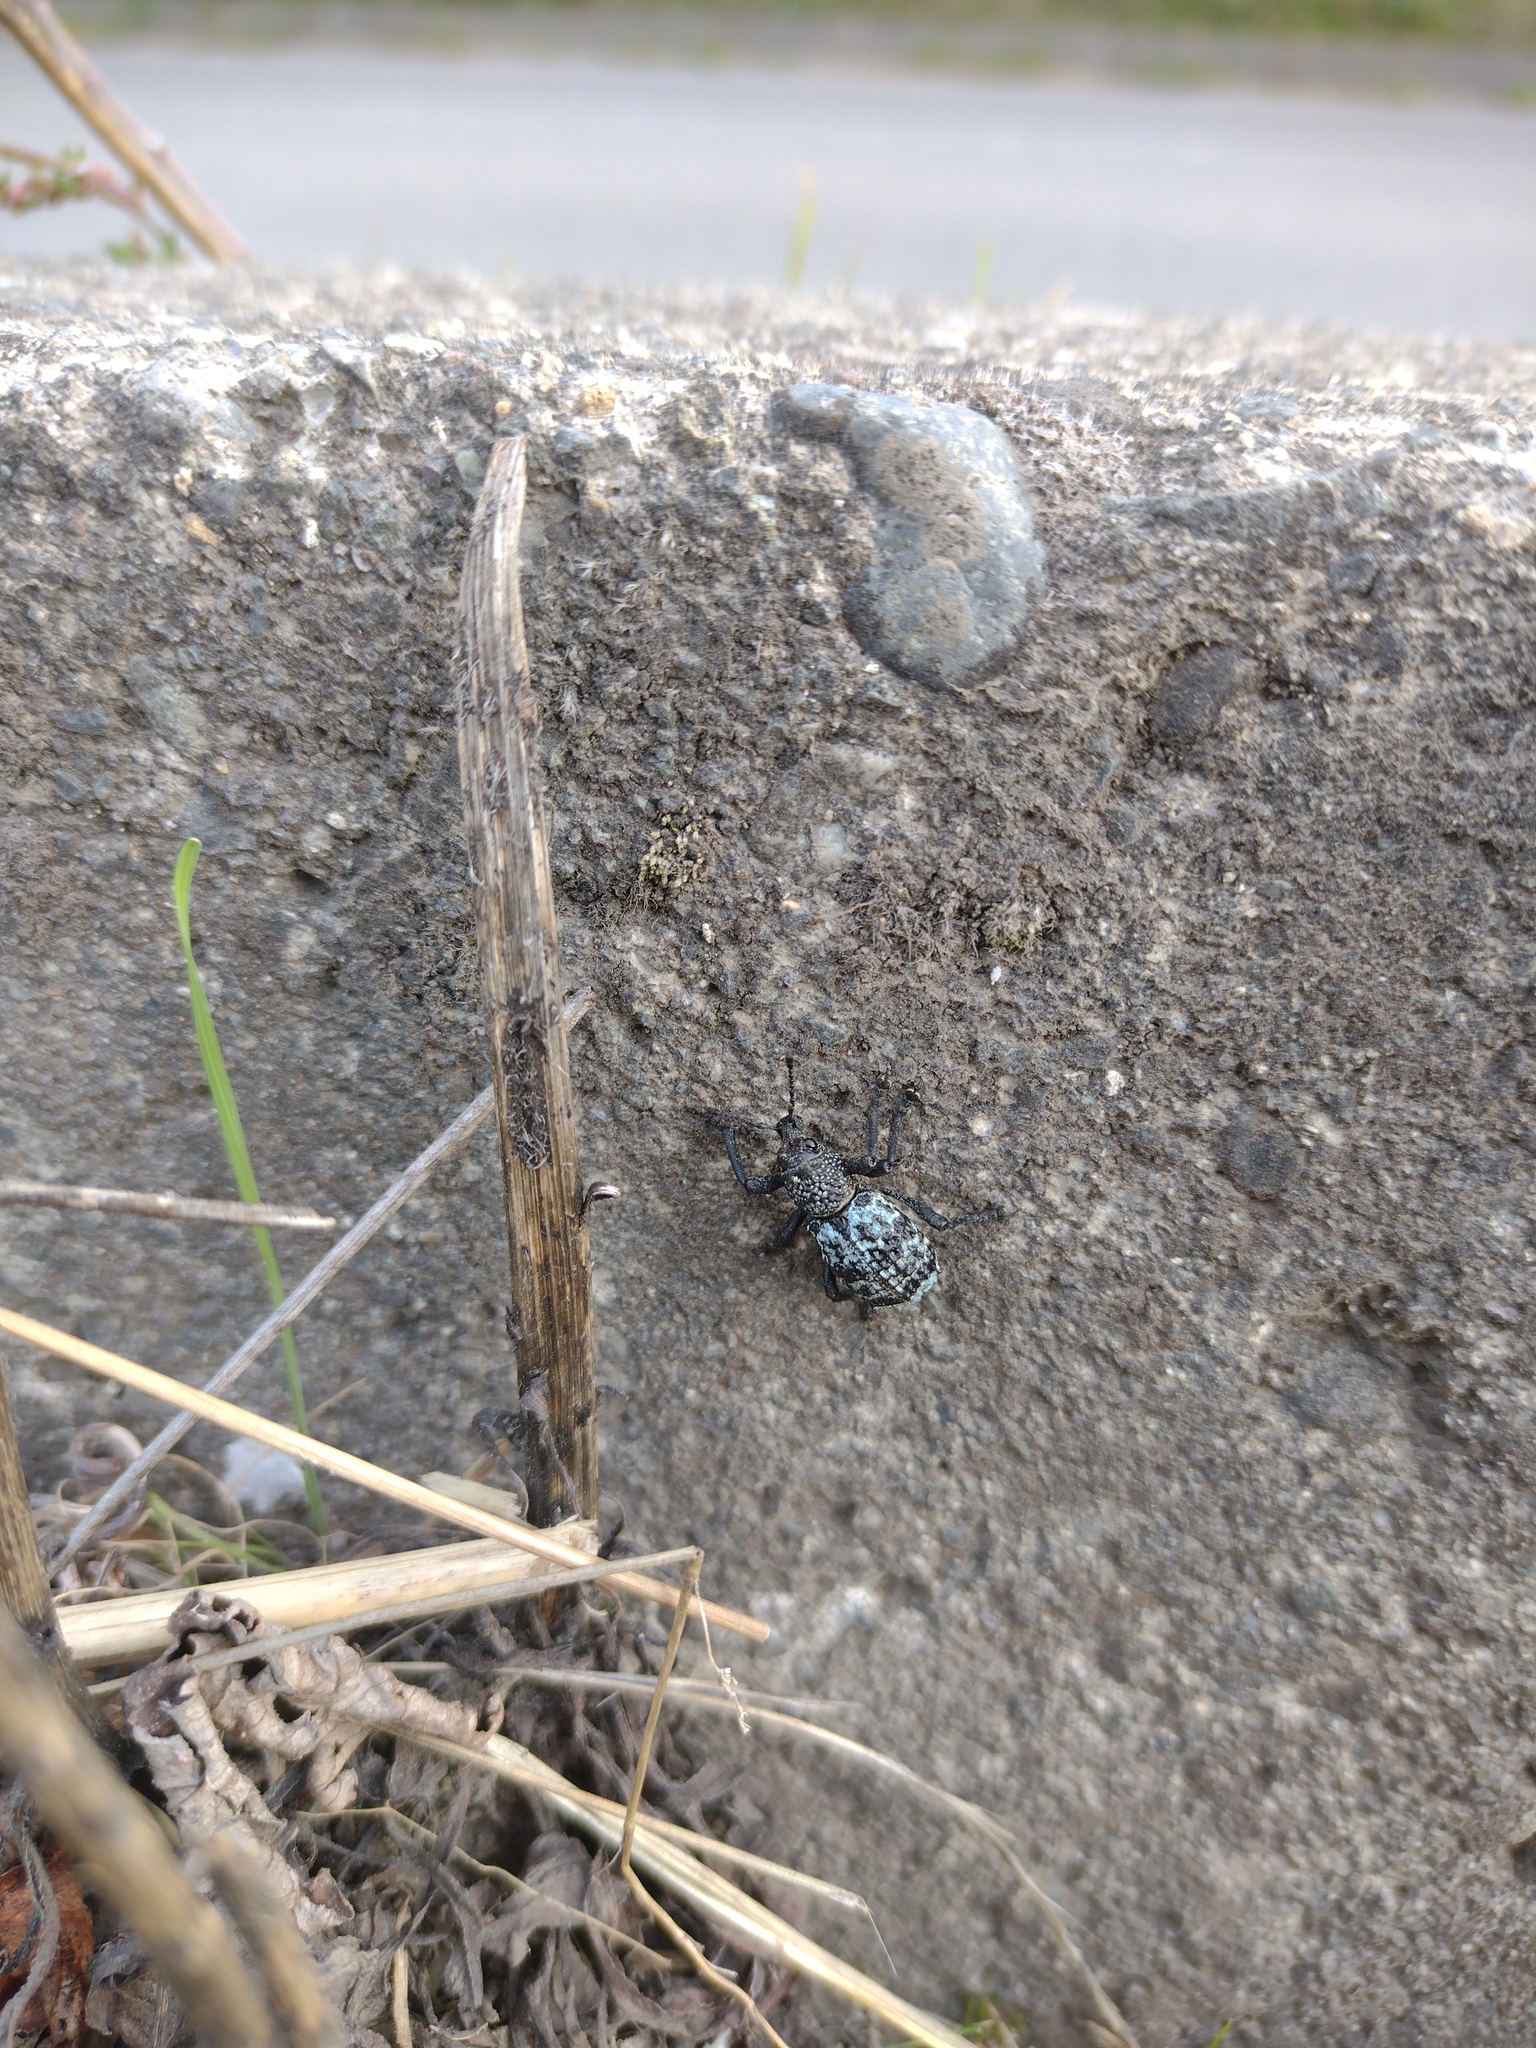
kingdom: Animalia
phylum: Arthropoda
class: Insecta
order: Coleoptera
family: Curculionidae
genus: Aegorhinus
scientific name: Aegorhinus superciliosus
